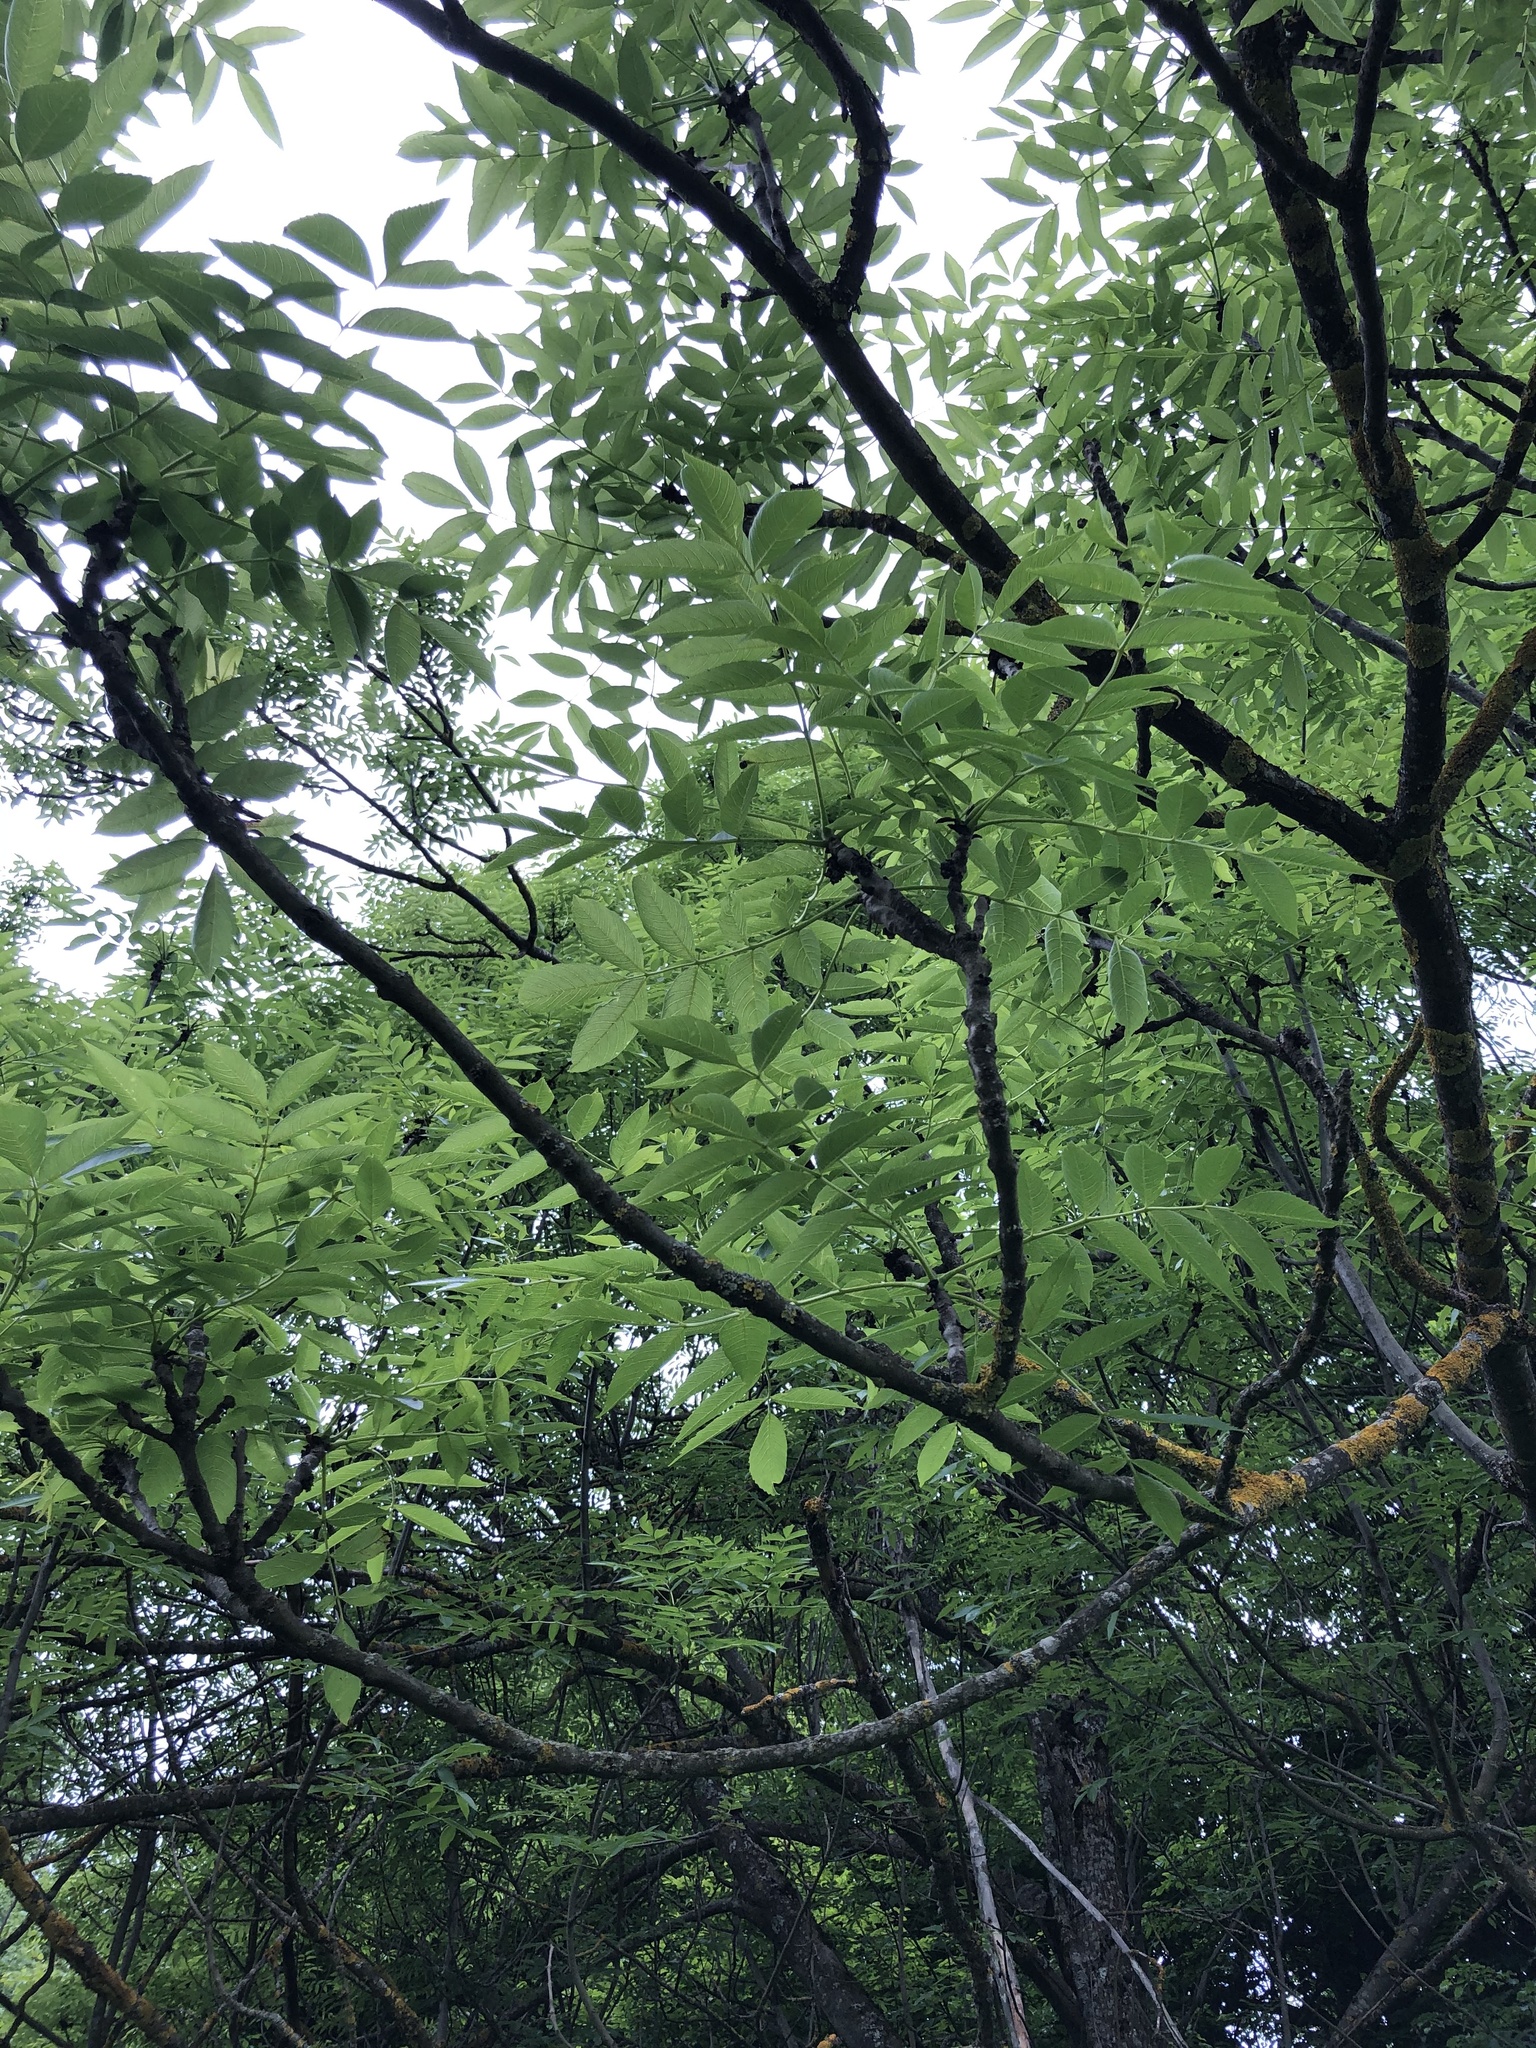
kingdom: Plantae
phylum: Tracheophyta
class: Magnoliopsida
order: Rosales
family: Rosaceae
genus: Cormus
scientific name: Cormus domestica
